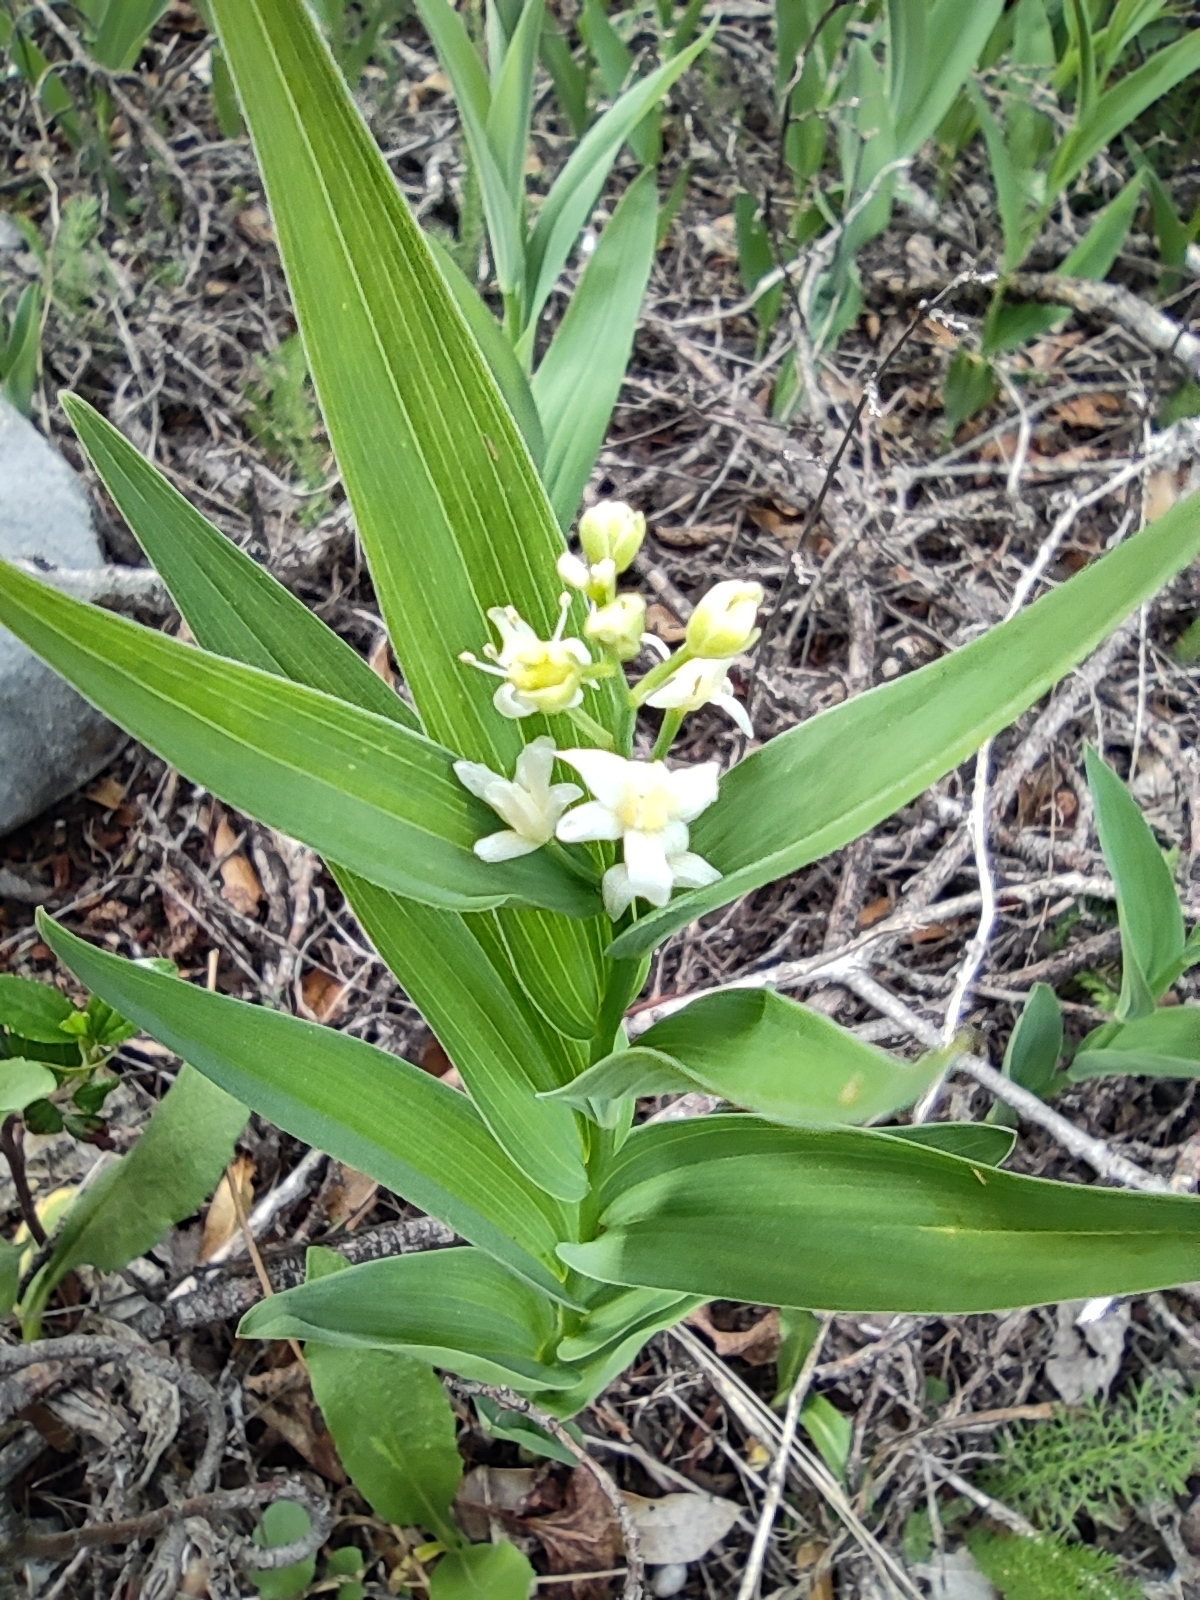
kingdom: Plantae
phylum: Tracheophyta
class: Liliopsida
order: Asparagales
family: Asparagaceae
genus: Maianthemum
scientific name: Maianthemum stellatum
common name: Little false solomon's seal
